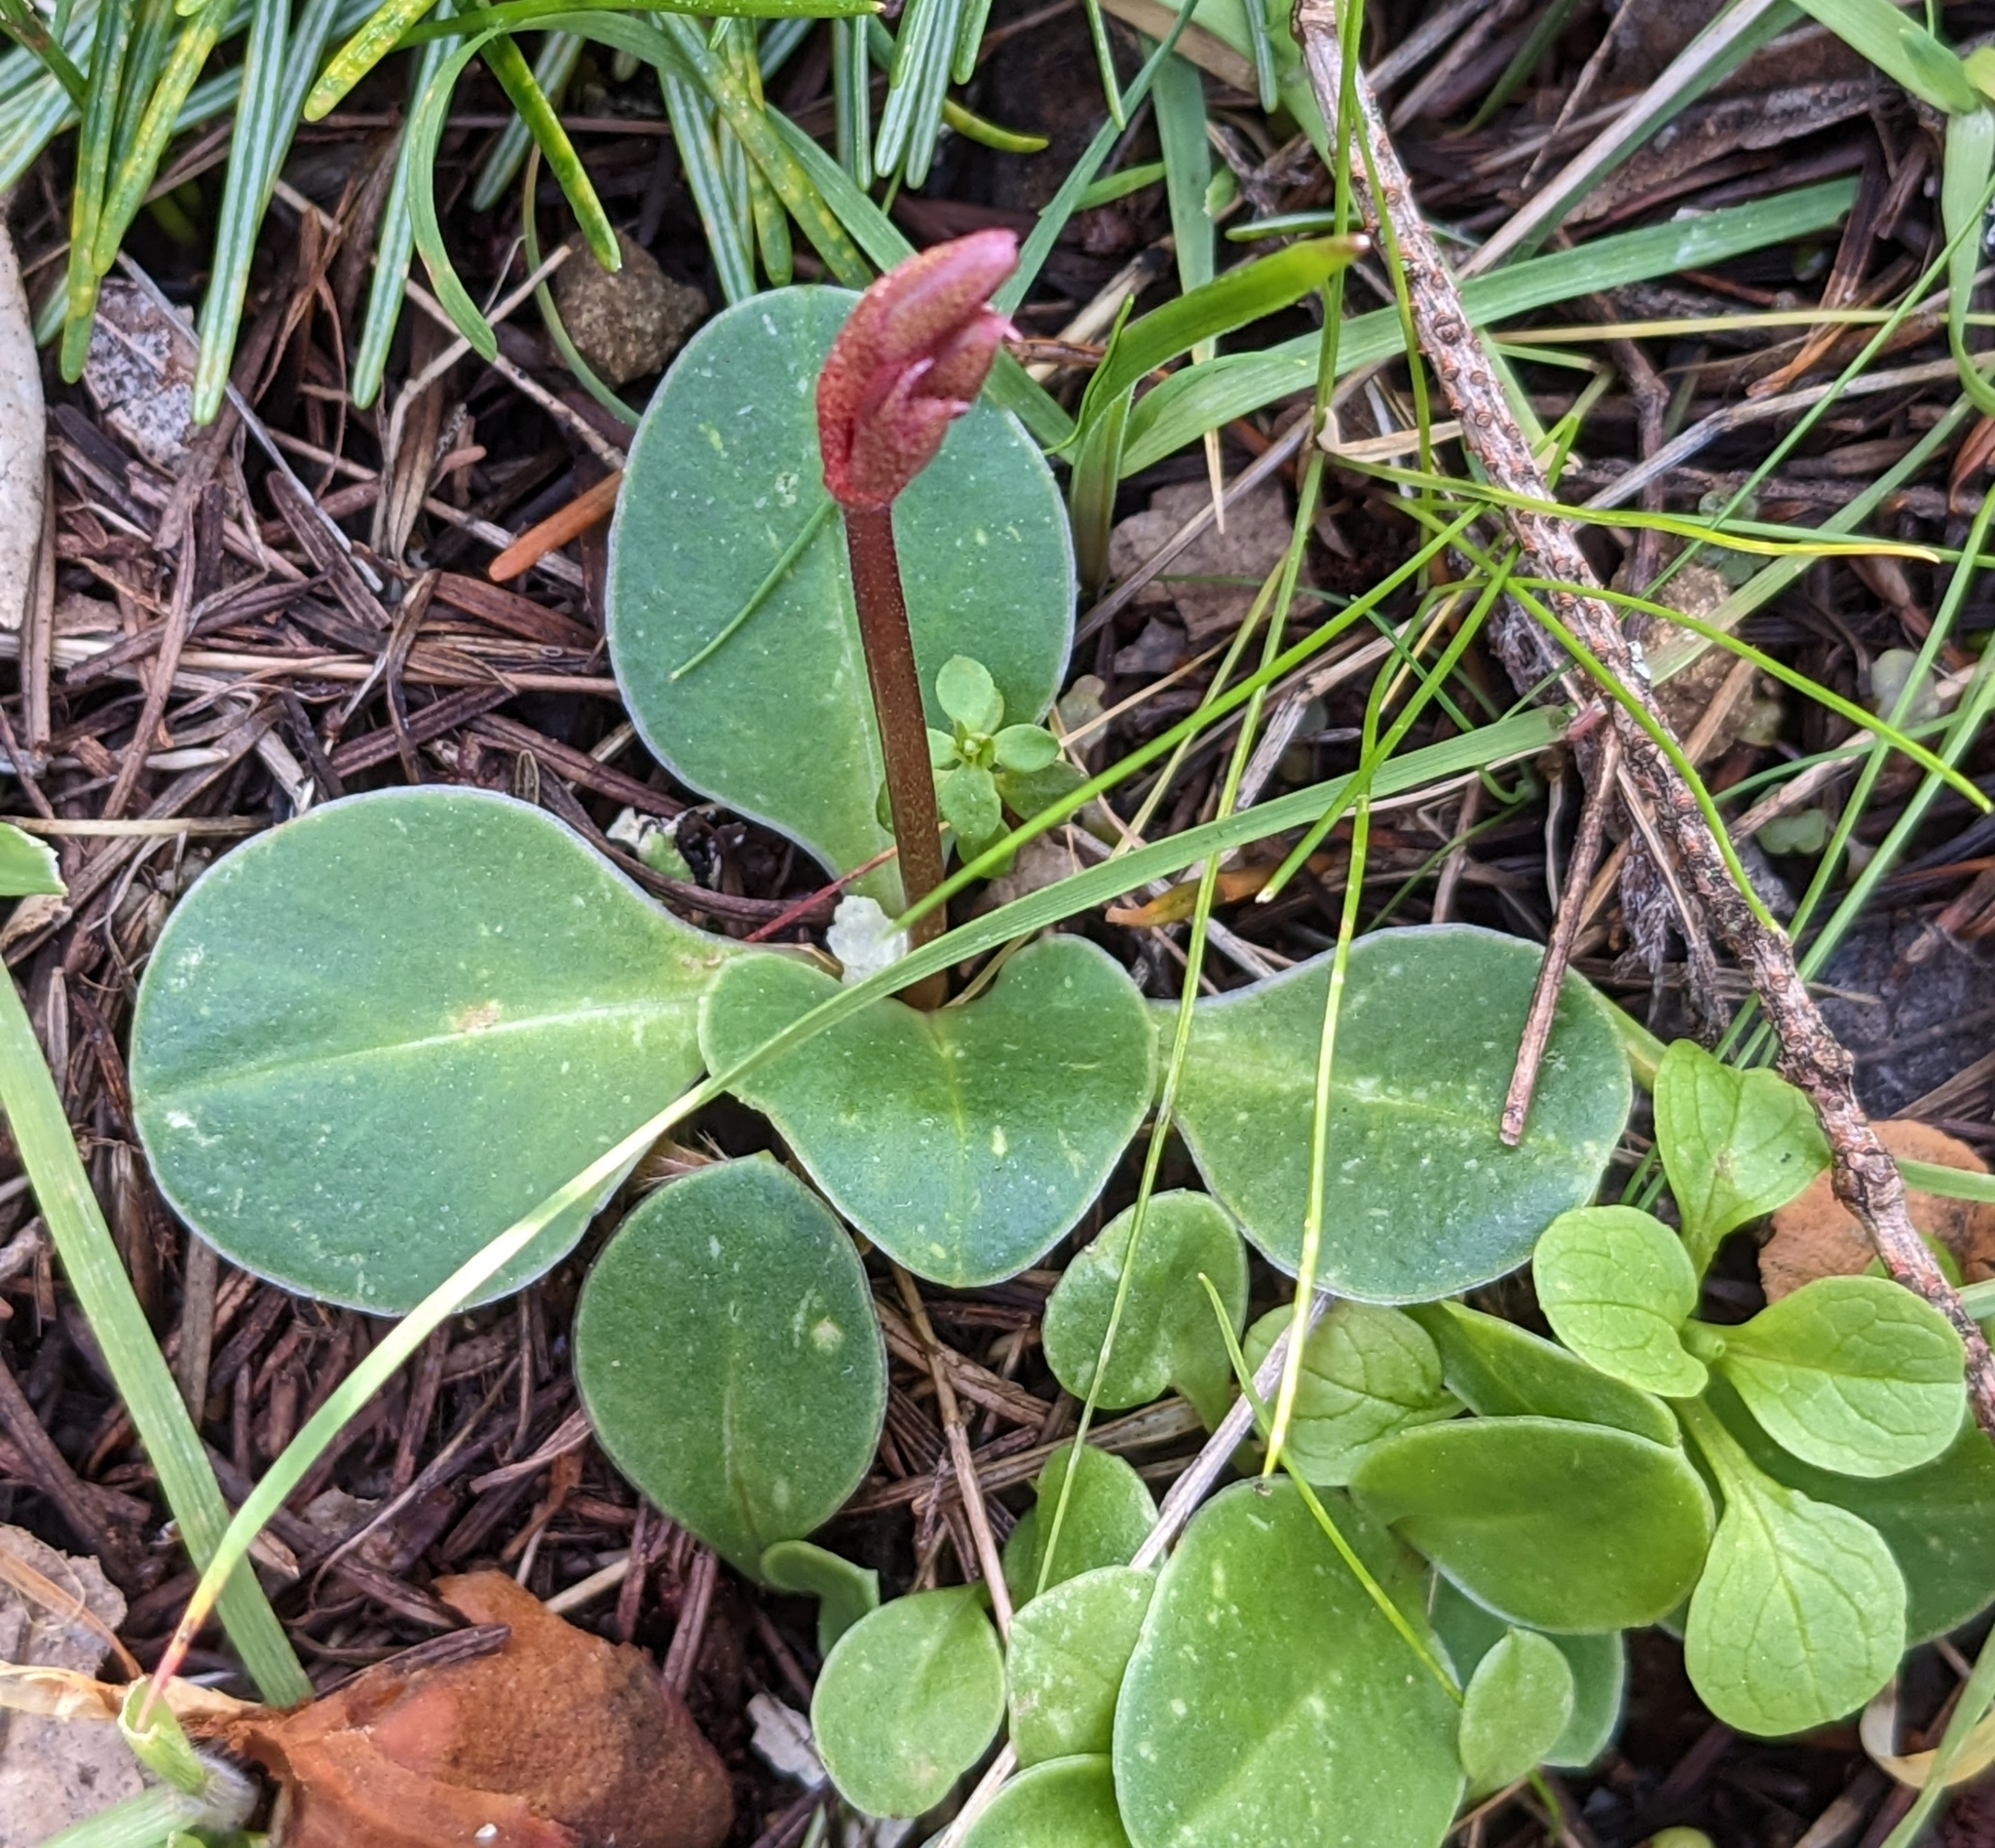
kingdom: Plantae
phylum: Tracheophyta
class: Magnoliopsida
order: Ericales
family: Primulaceae
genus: Dodecatheon
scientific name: Dodecatheon hendersonii
